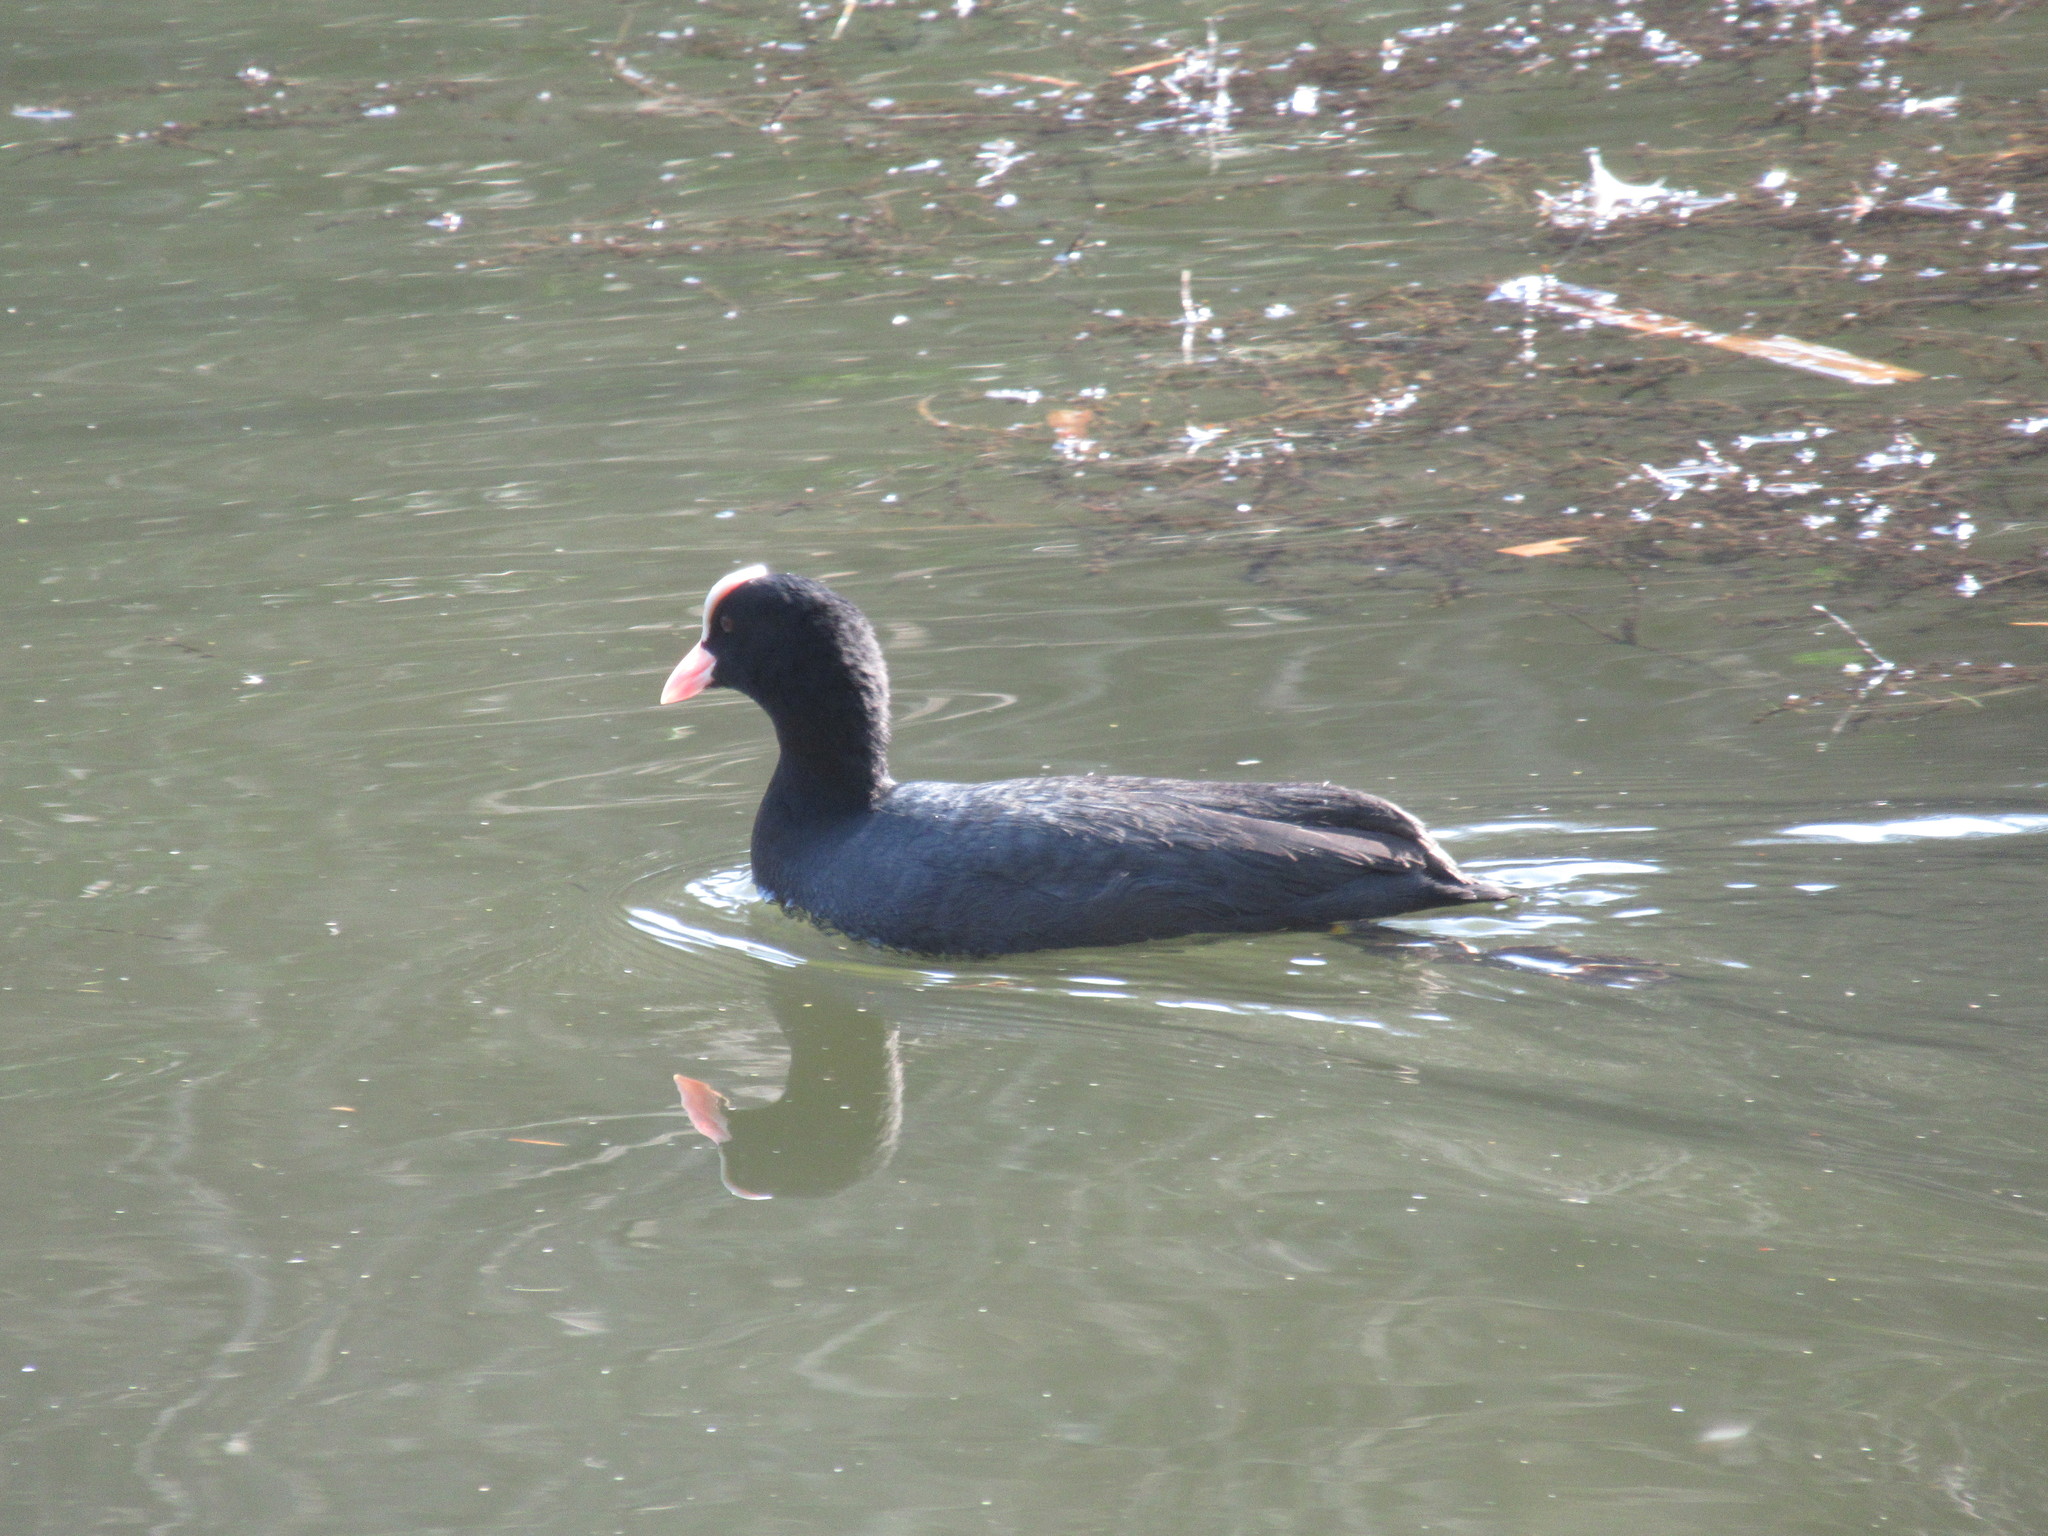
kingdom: Animalia
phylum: Chordata
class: Aves
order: Gruiformes
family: Rallidae
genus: Fulica
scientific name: Fulica atra
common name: Eurasian coot
